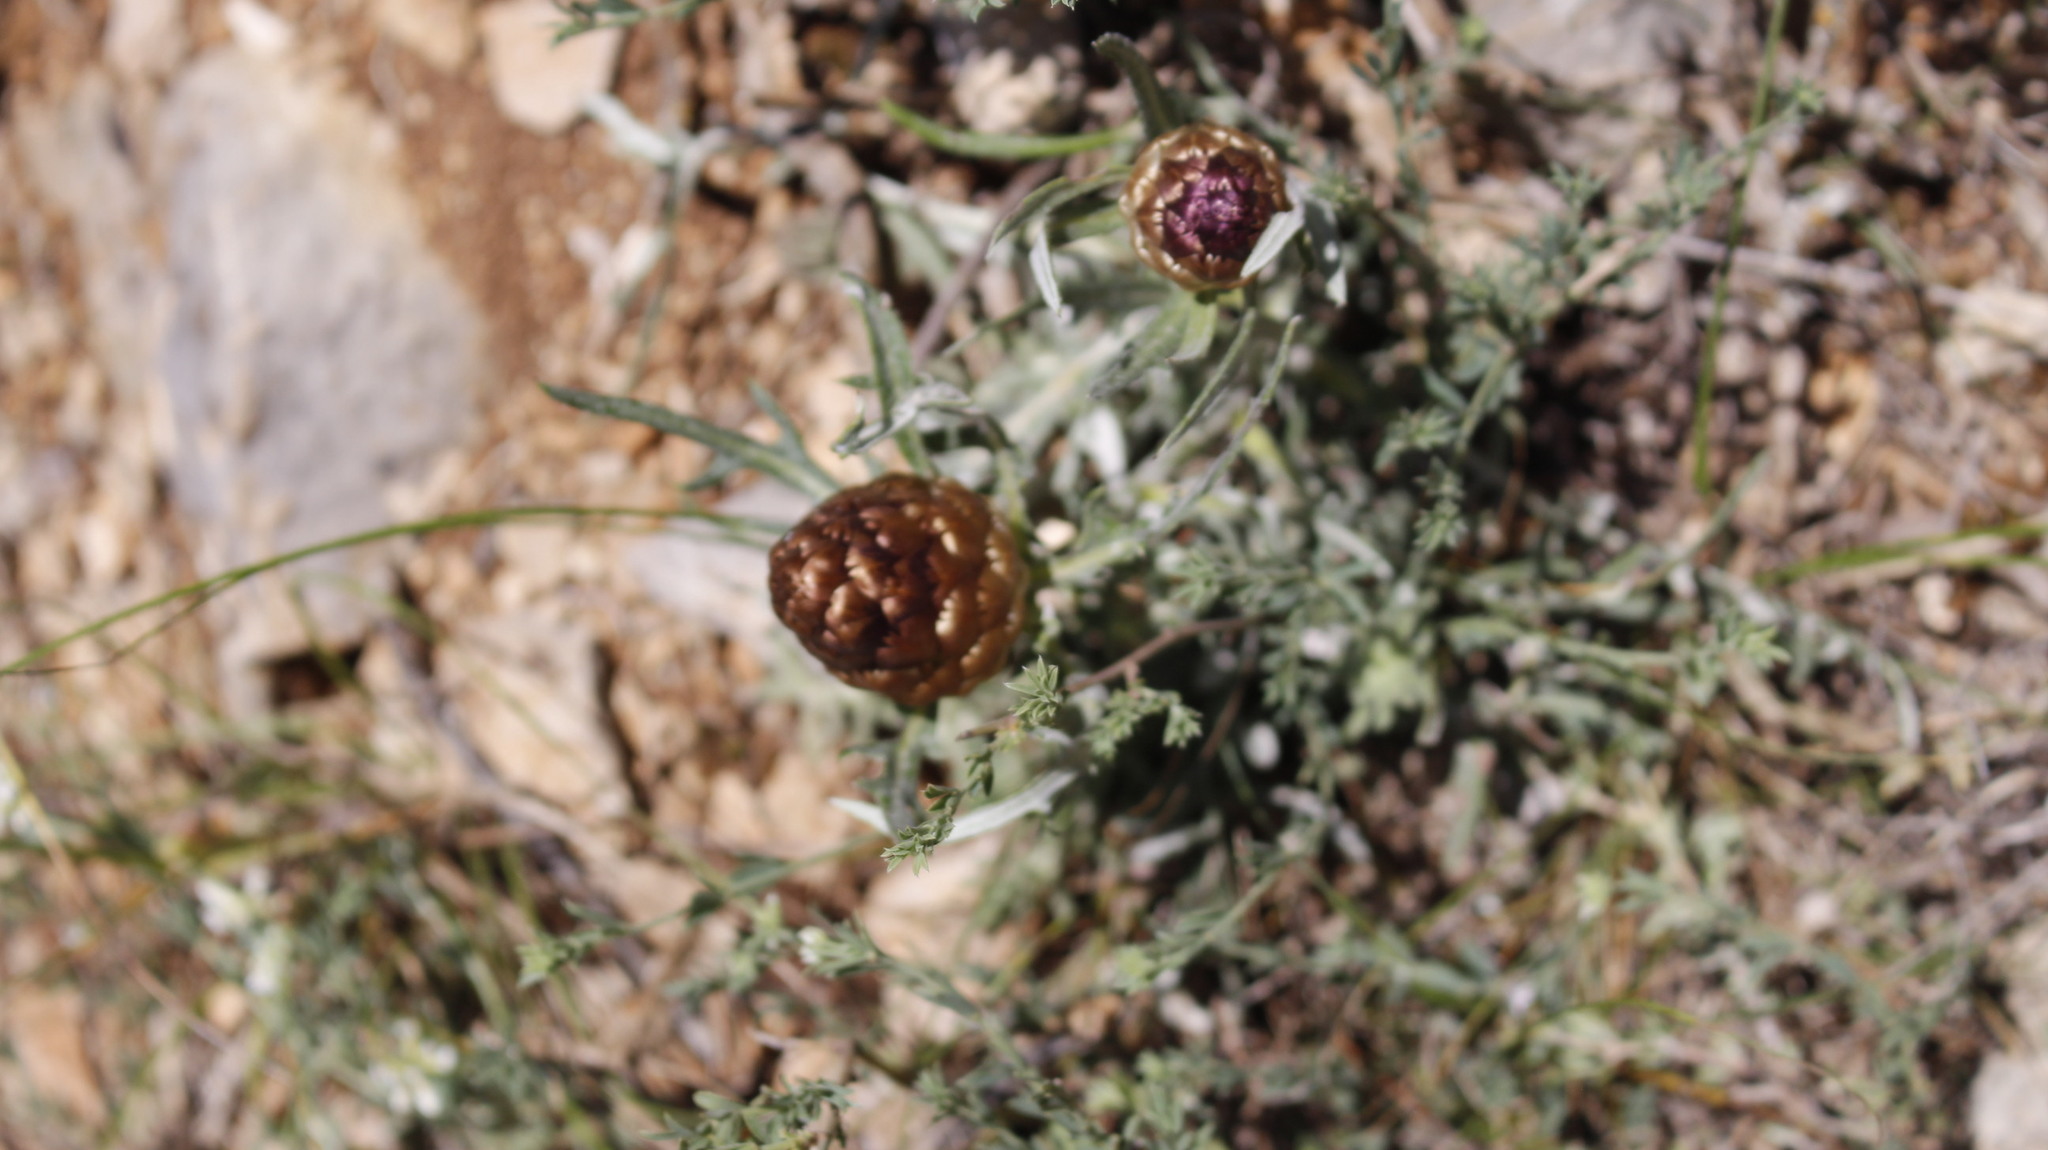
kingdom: Plantae
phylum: Tracheophyta
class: Magnoliopsida
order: Asterales
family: Asteraceae
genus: Leuzea
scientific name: Leuzea conifera
